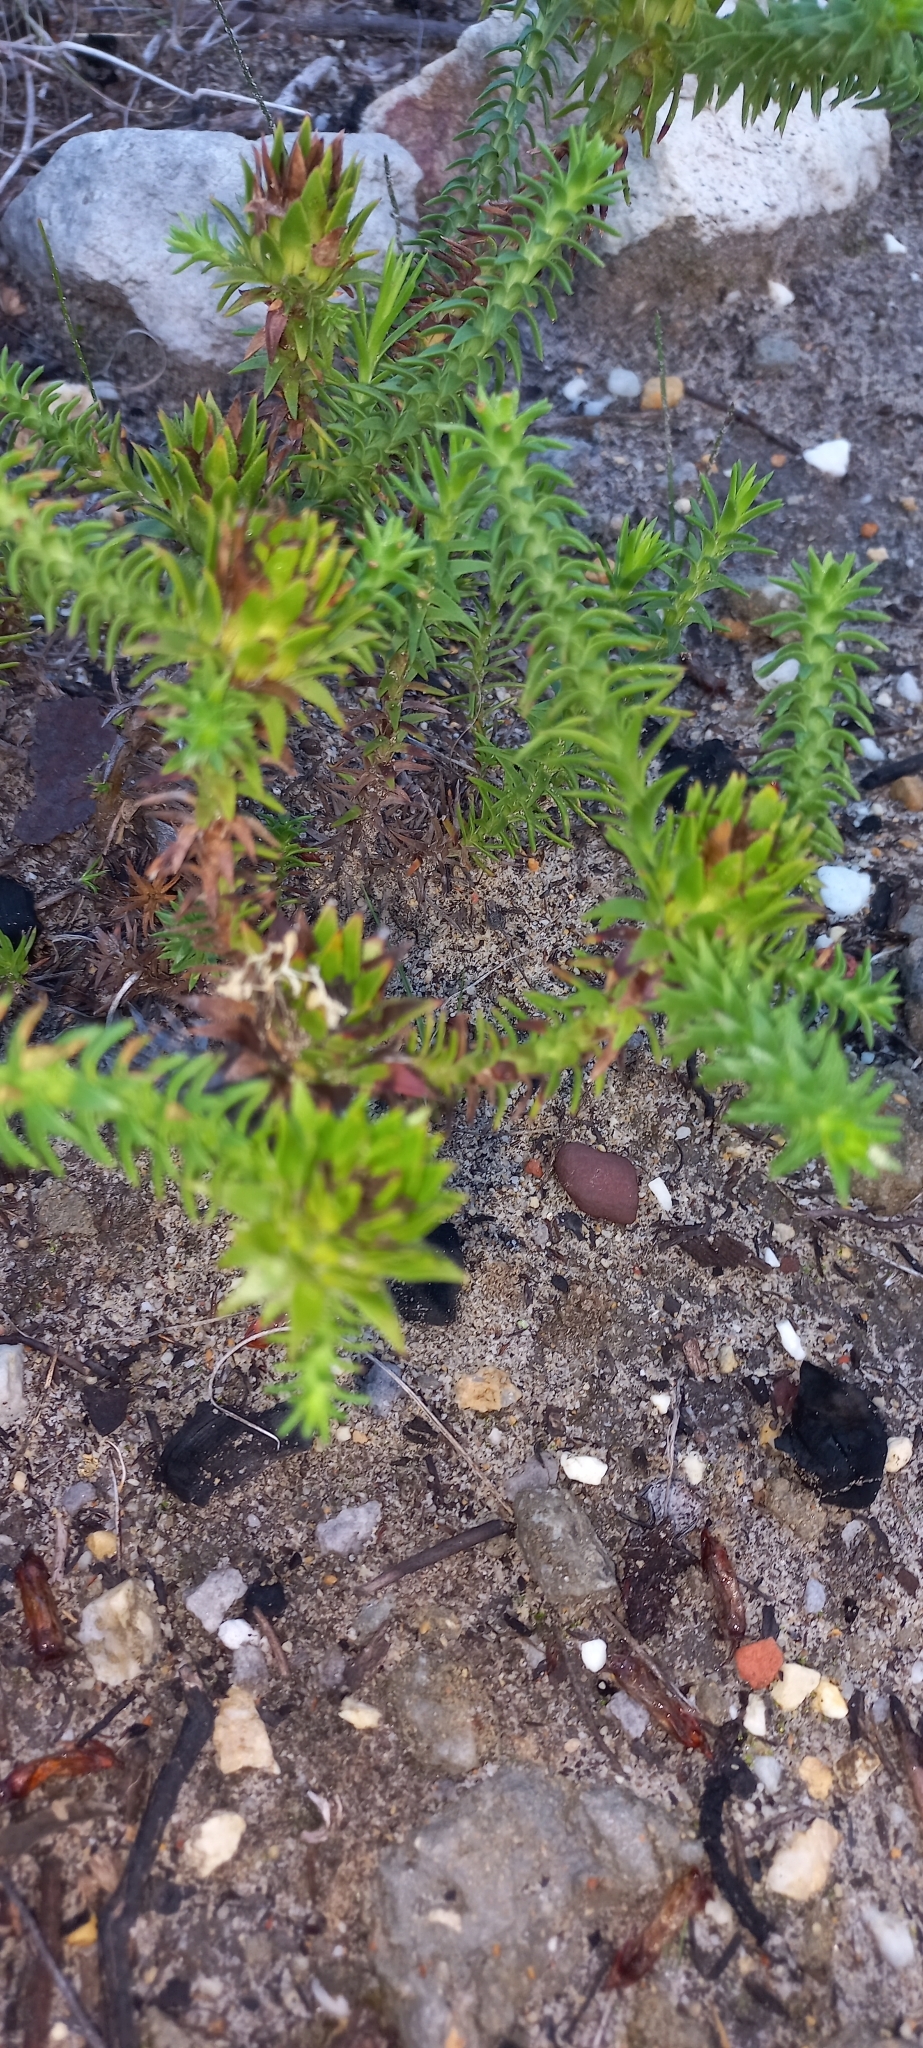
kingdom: Plantae
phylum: Tracheophyta
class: Magnoliopsida
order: Asterales
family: Asteraceae
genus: Oedera
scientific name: Oedera imbricata
